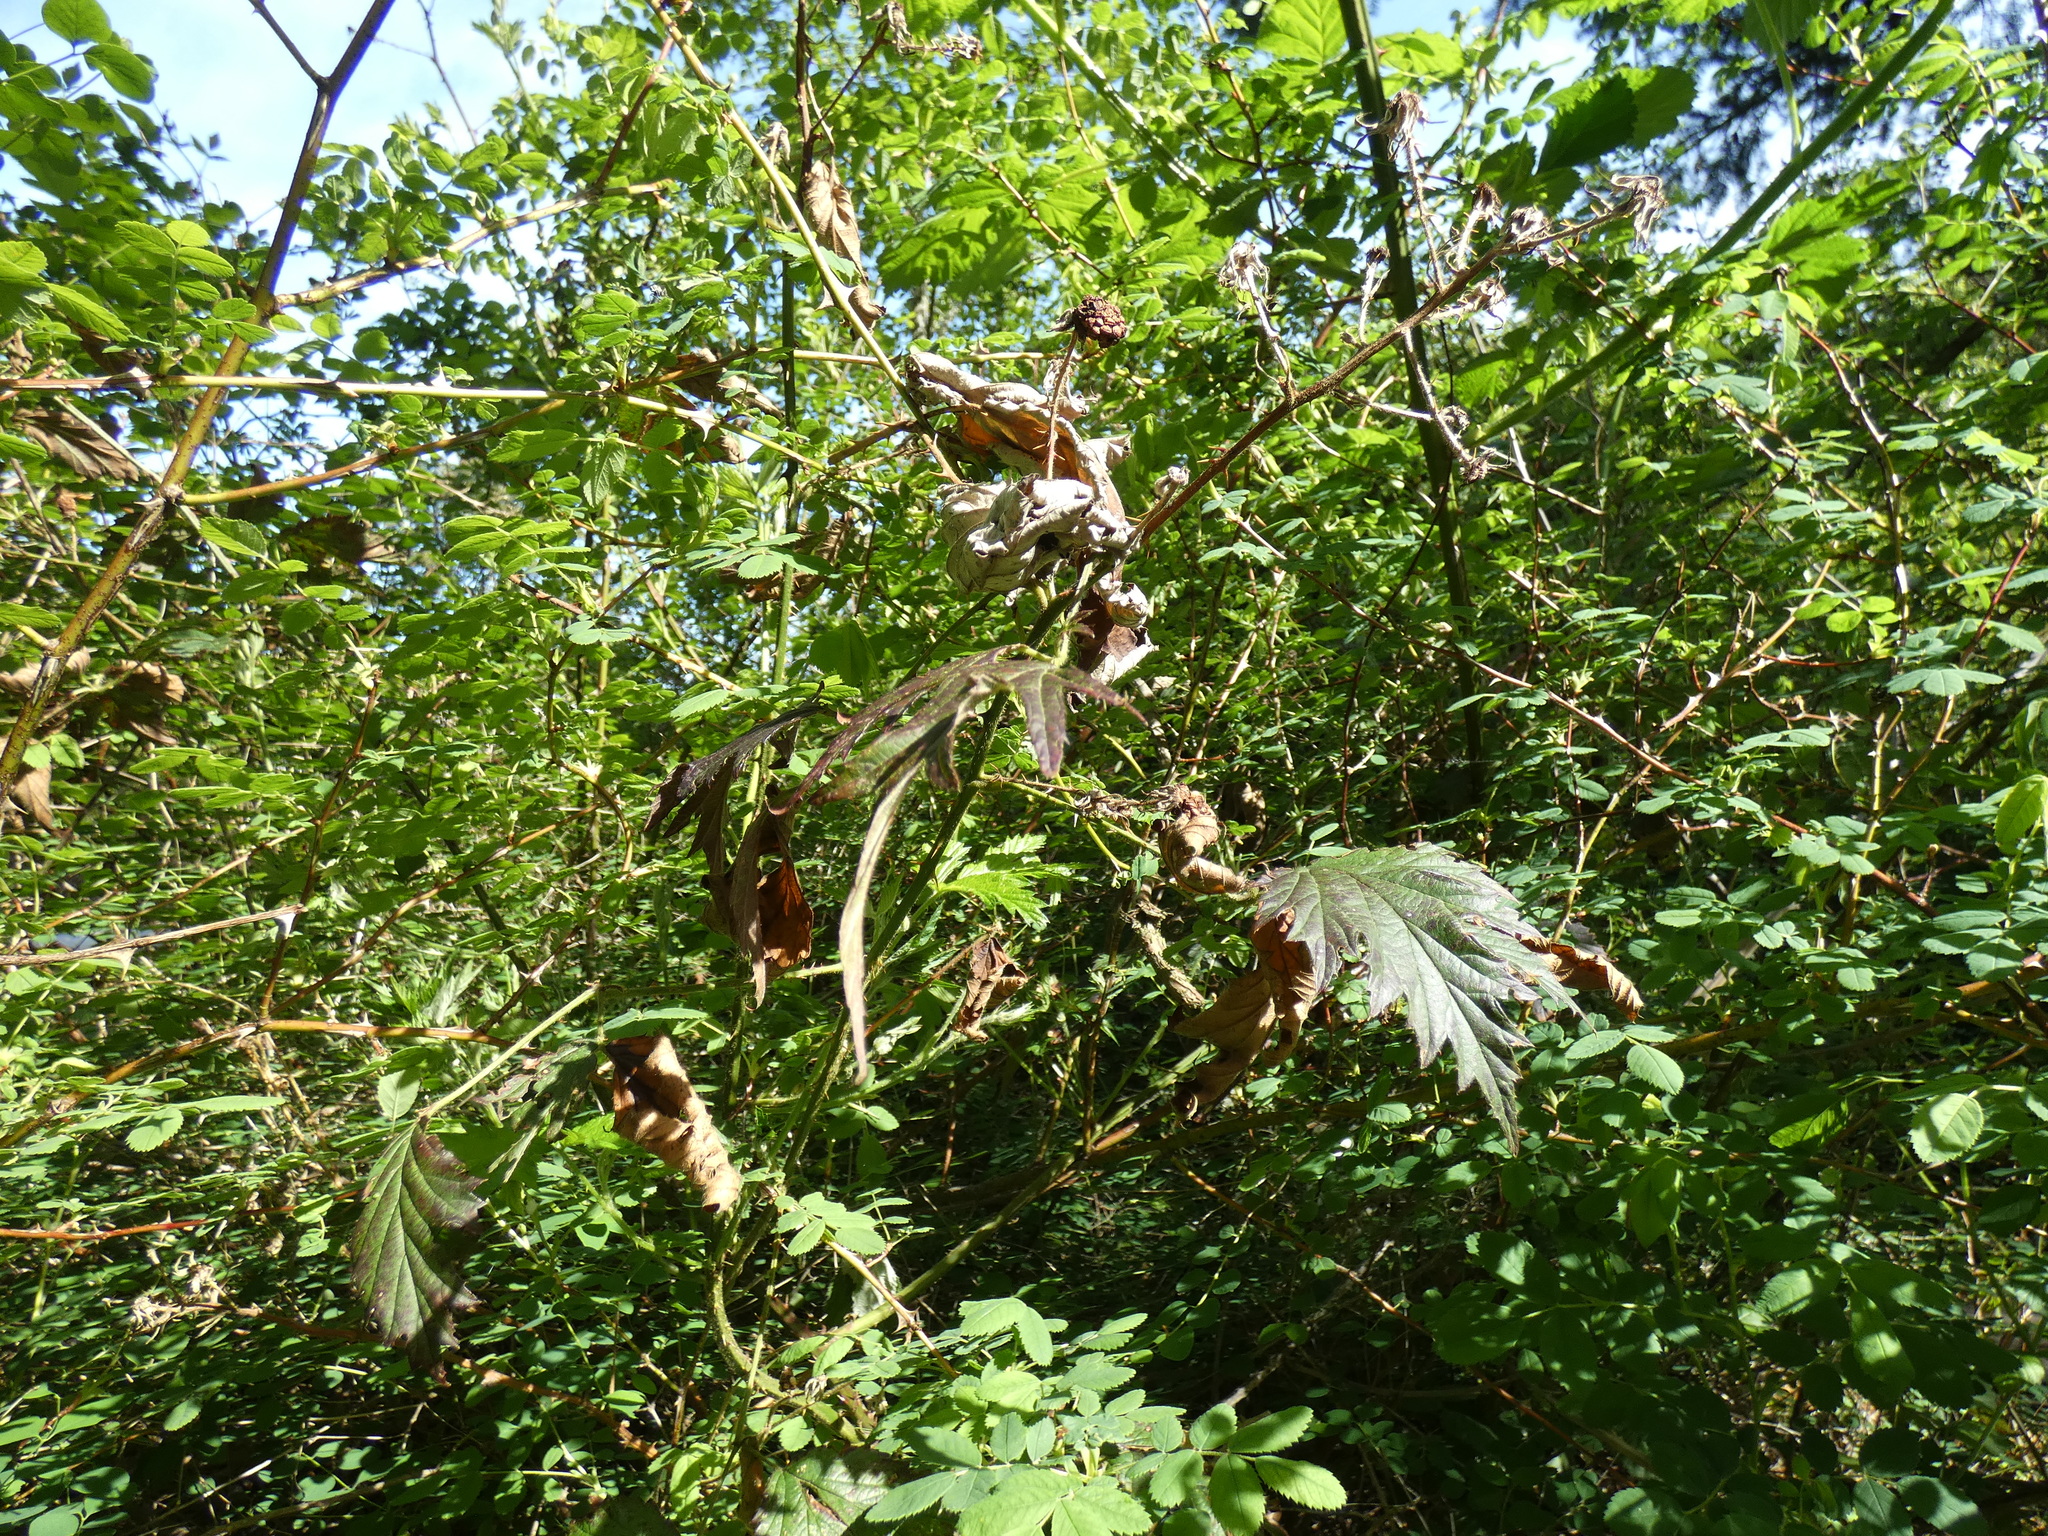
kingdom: Plantae
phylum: Tracheophyta
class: Magnoliopsida
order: Rosales
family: Rosaceae
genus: Rubus
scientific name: Rubus laciniatus
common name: Evergreen blackberry
